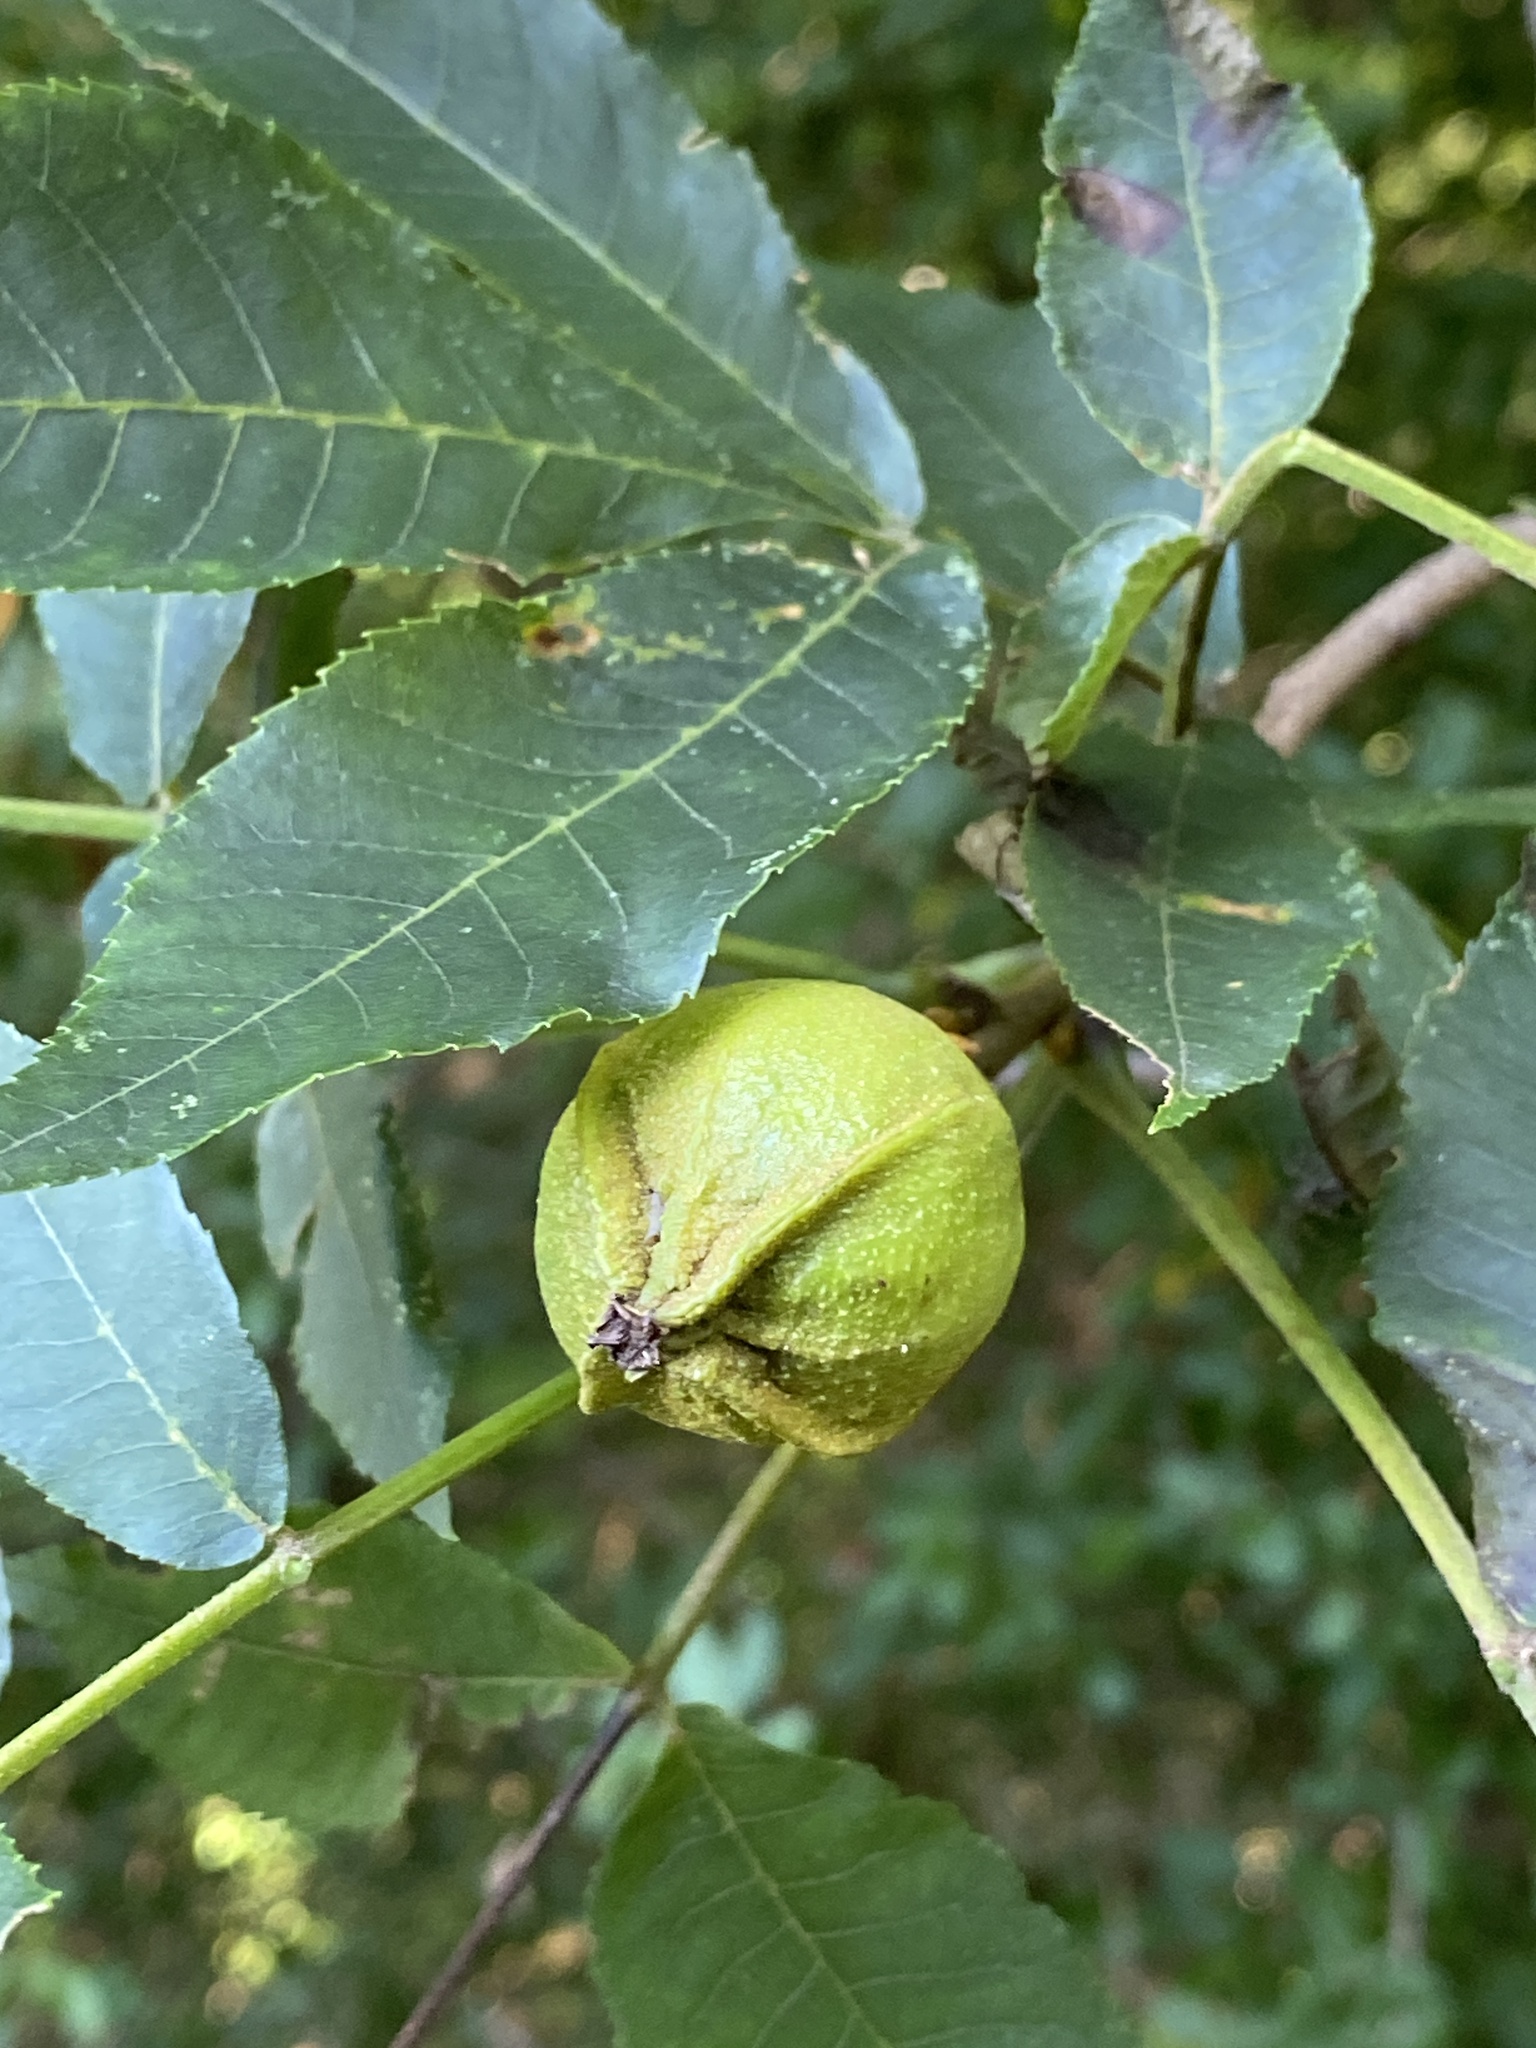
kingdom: Plantae
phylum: Tracheophyta
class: Magnoliopsida
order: Fagales
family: Juglandaceae
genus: Carya
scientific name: Carya cordiformis
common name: Bitternut hickory
